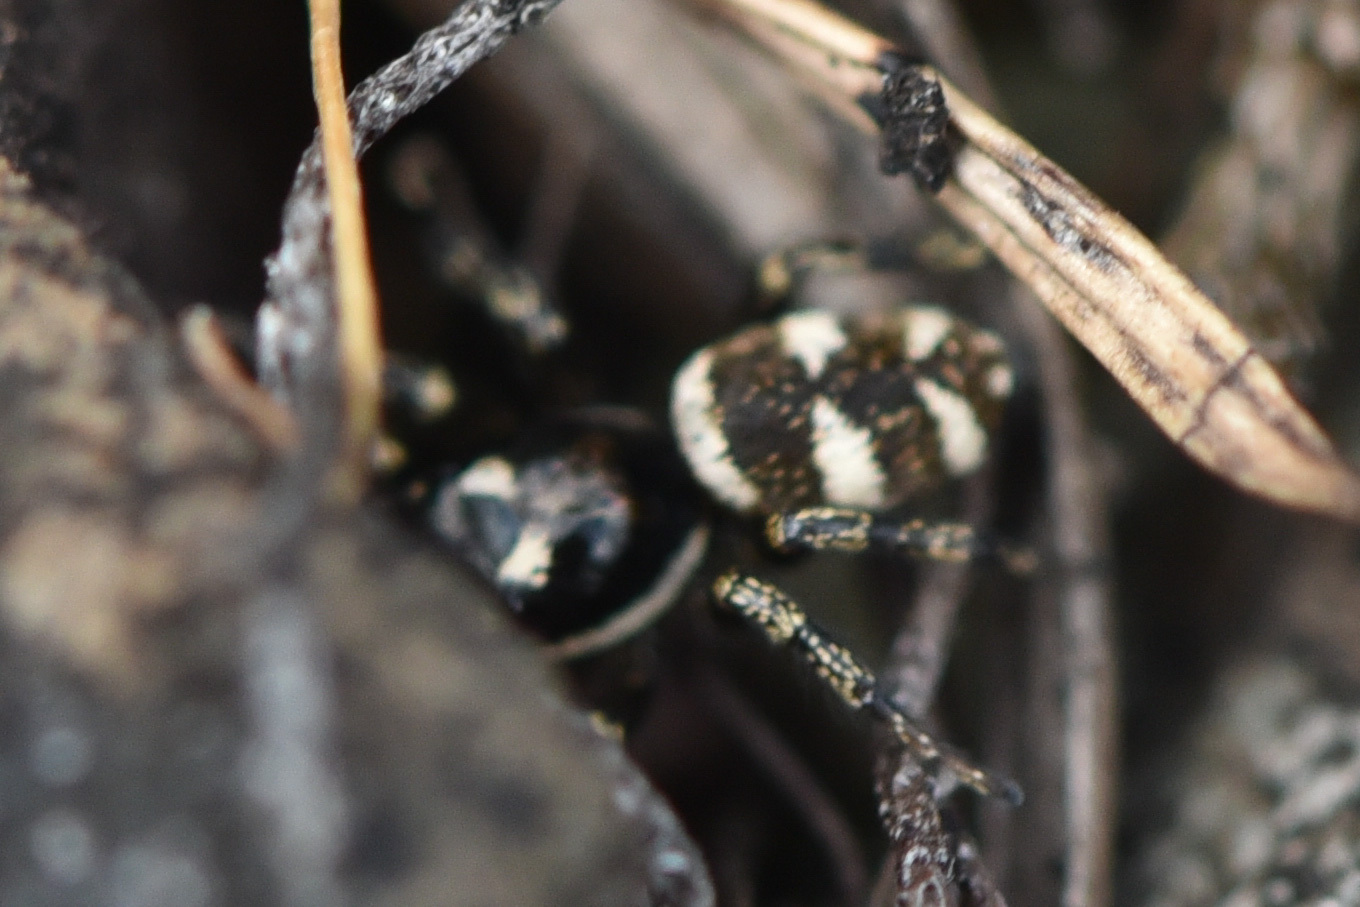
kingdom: Animalia
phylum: Arthropoda
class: Arachnida
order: Araneae
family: Salticidae
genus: Salticus
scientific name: Salticus scenicus
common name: Zebra jumper
